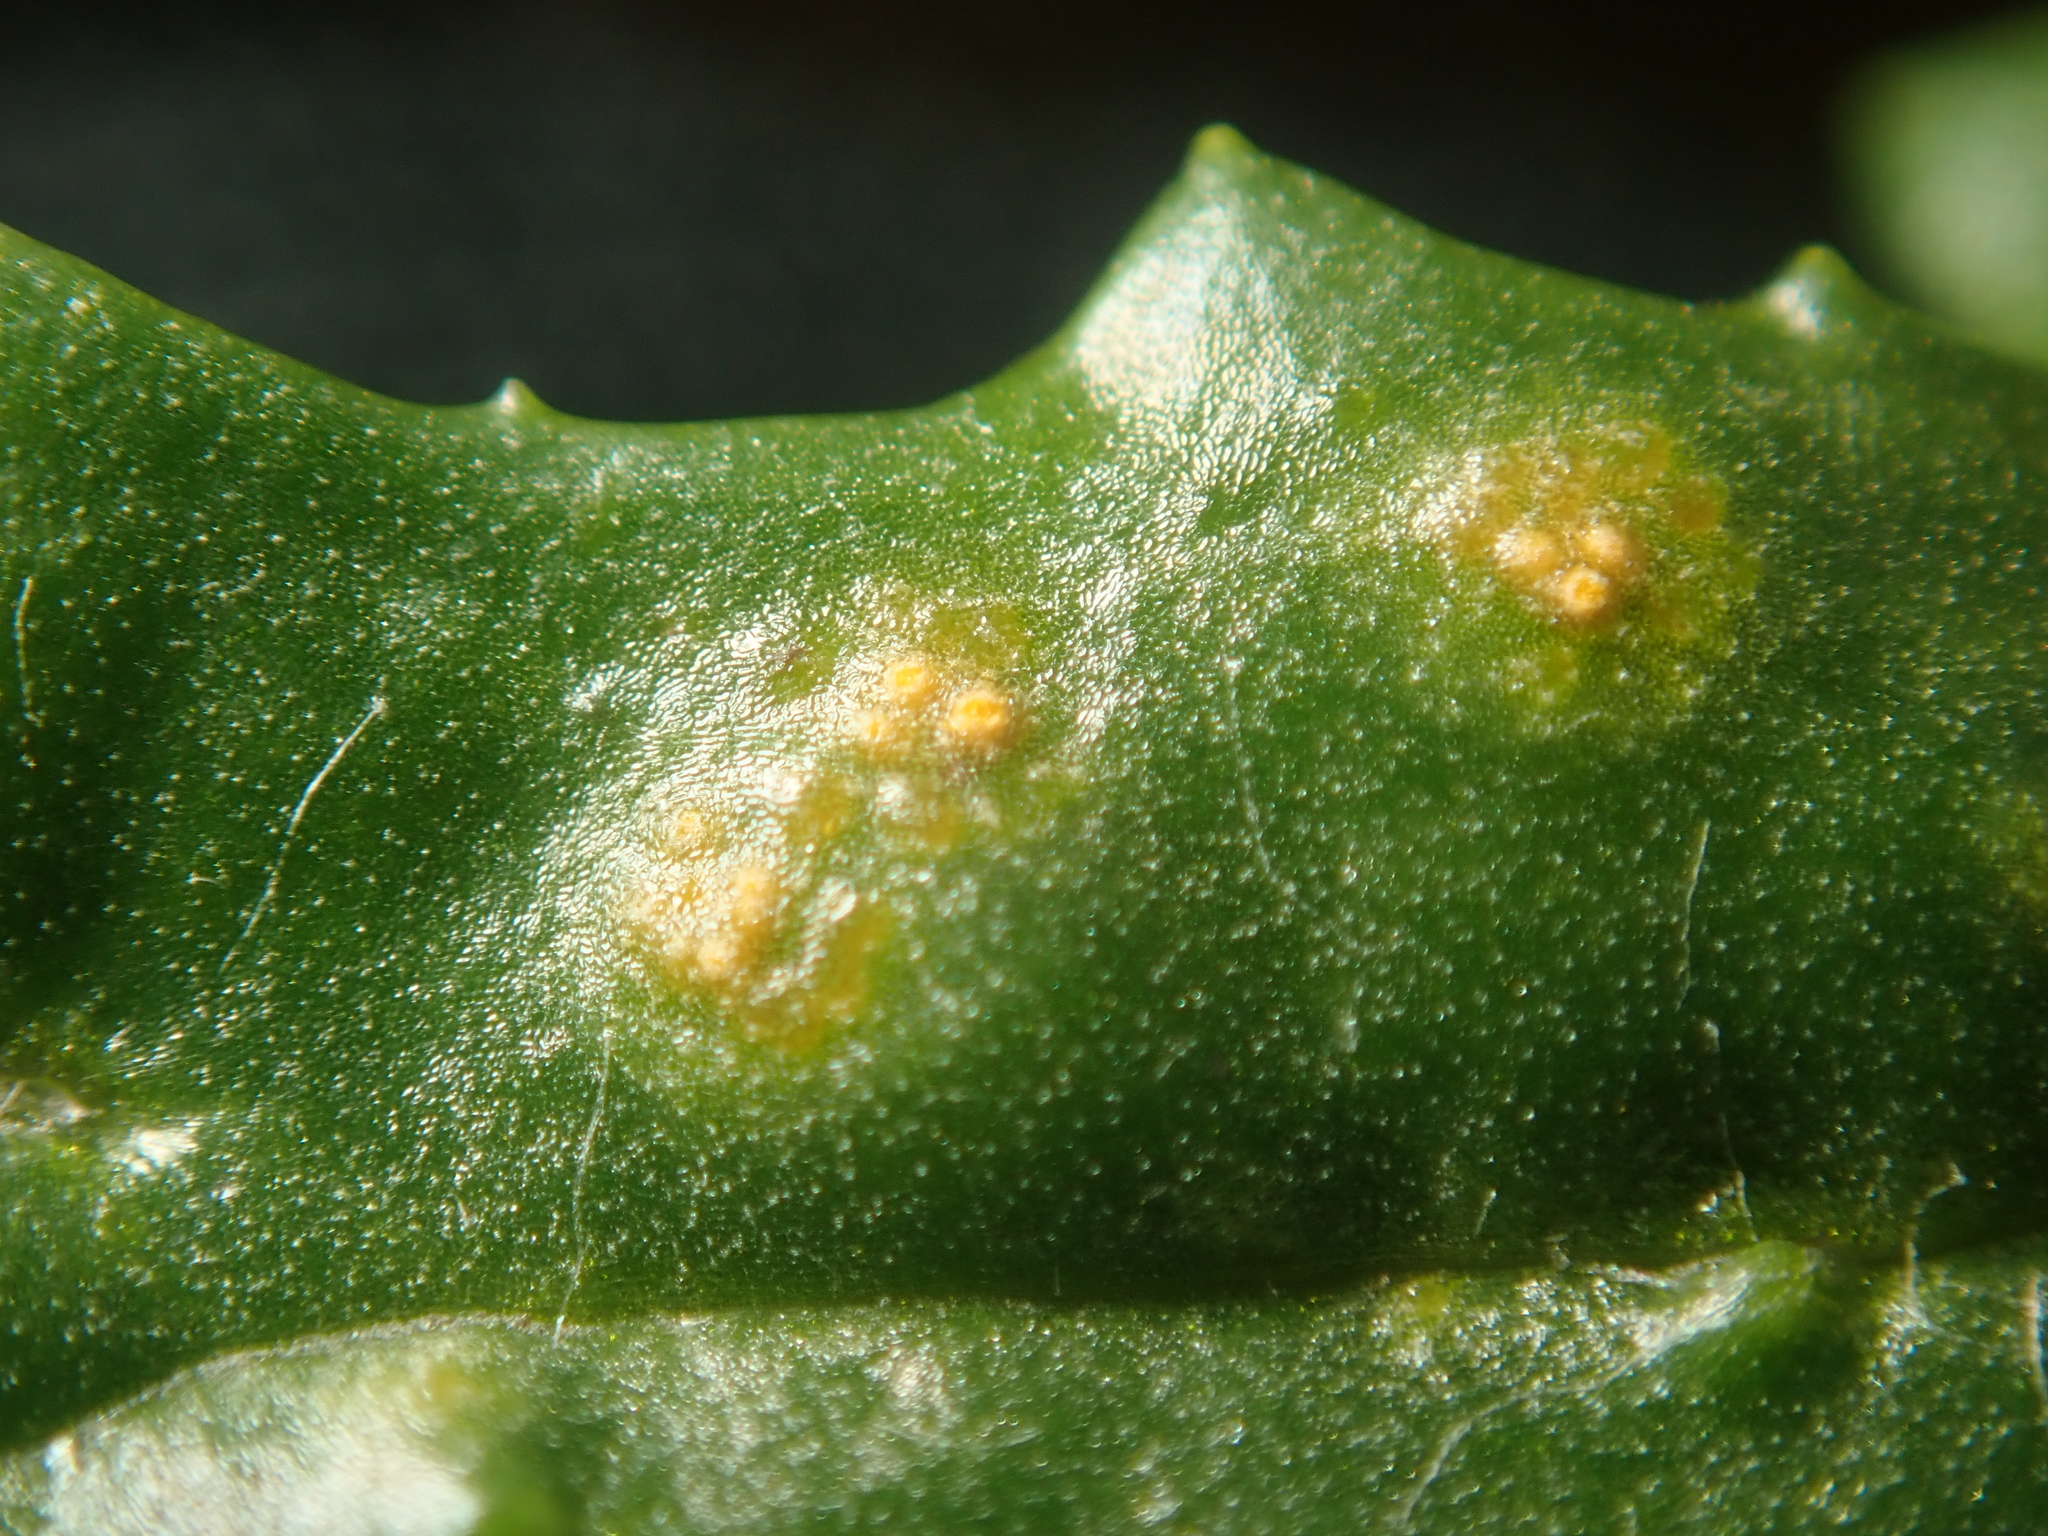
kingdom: Fungi
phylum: Basidiomycota
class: Pucciniomycetes
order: Pucciniales
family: Pucciniaceae
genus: Puccinia
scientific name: Puccinia lagenophorae
